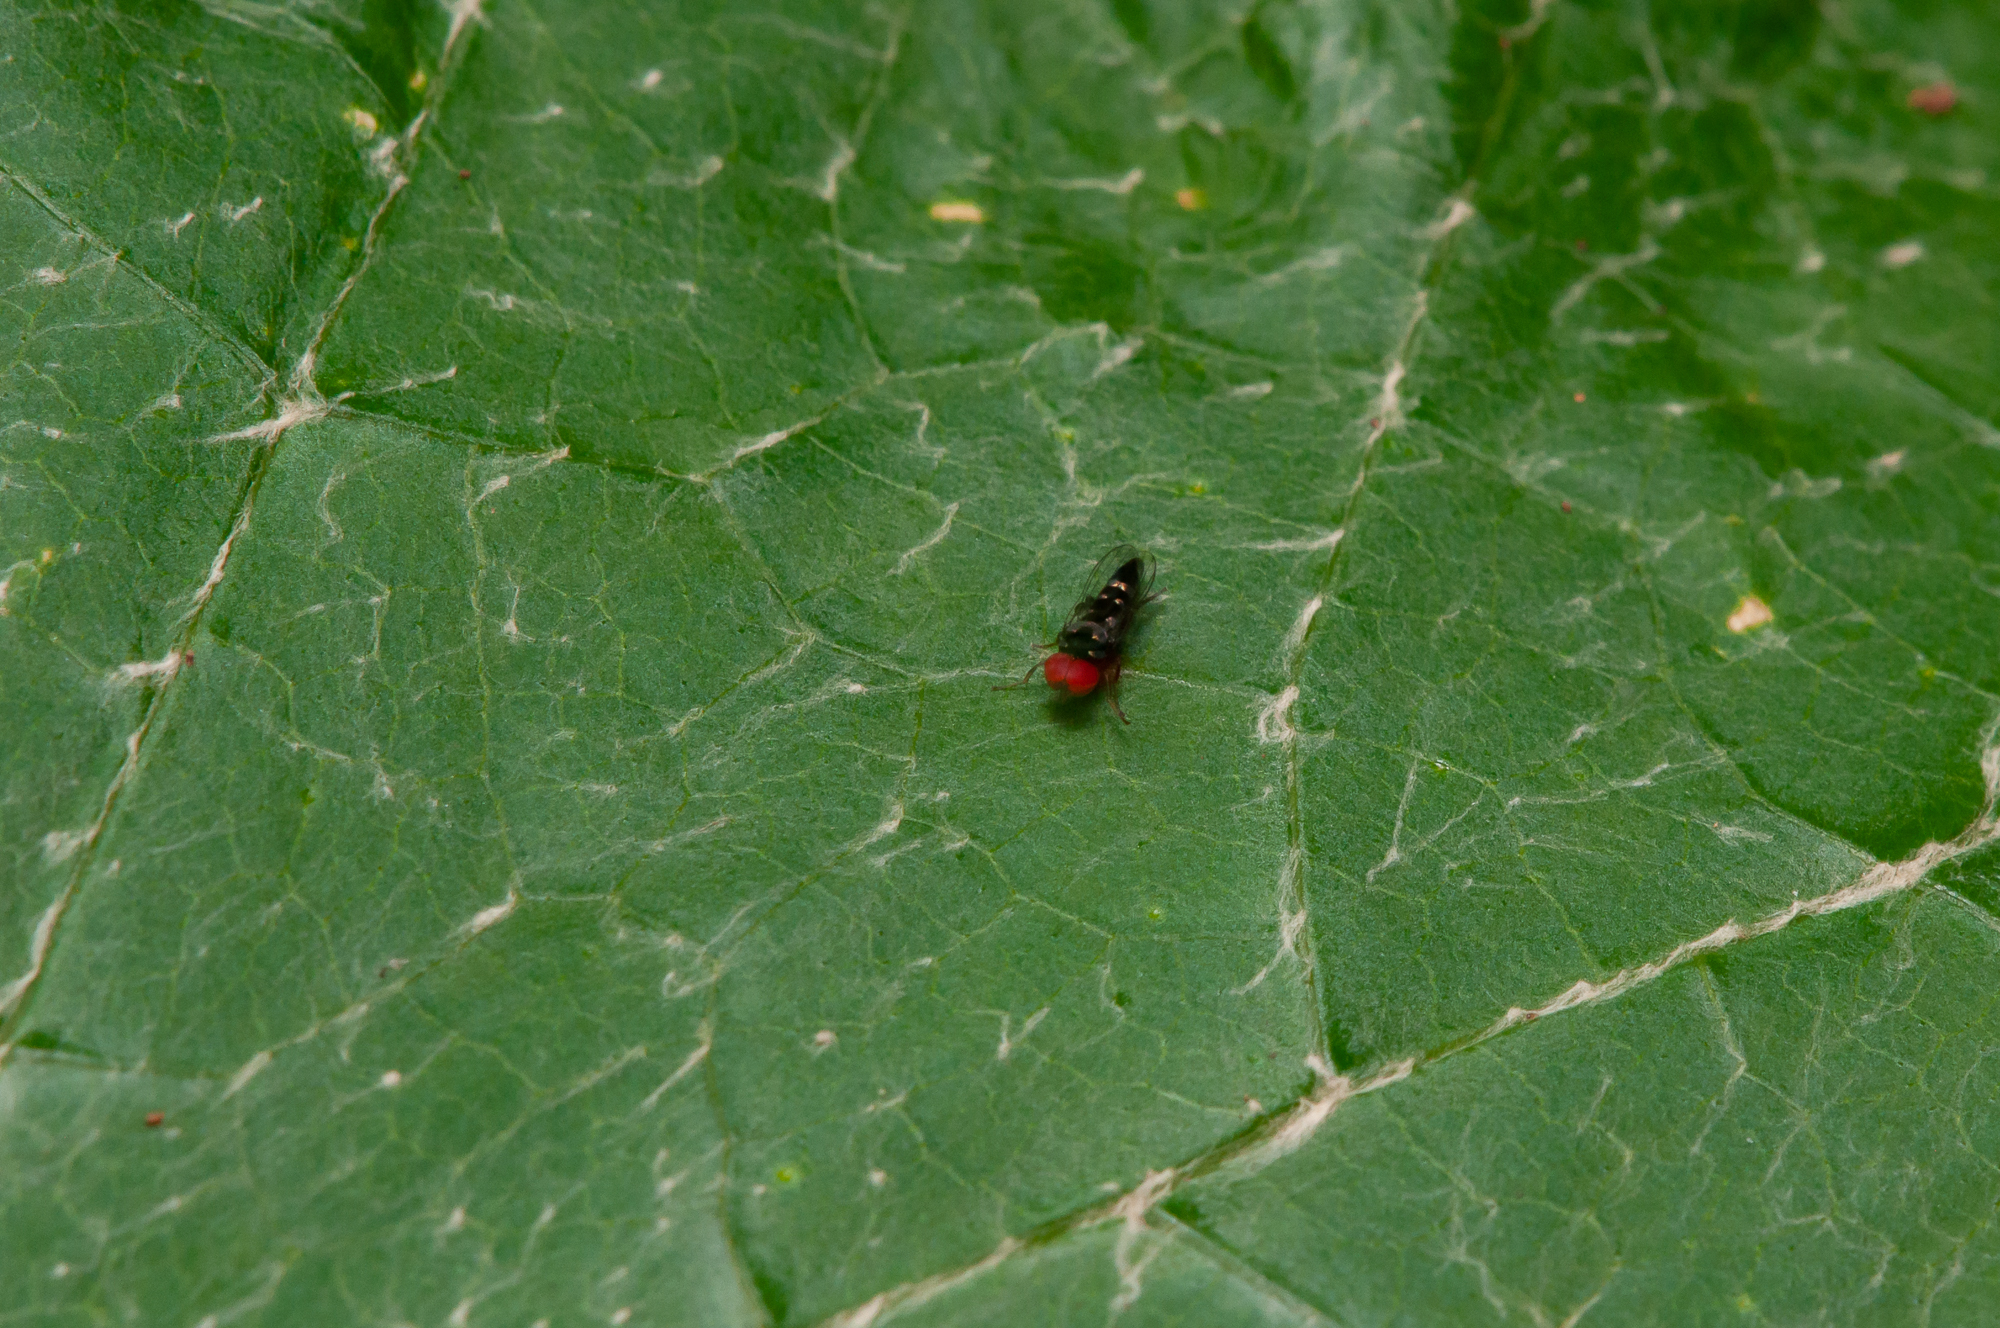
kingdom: Animalia
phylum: Arthropoda
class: Insecta
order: Diptera
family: Platypezidae
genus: Bertamyia
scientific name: Bertamyia notata
